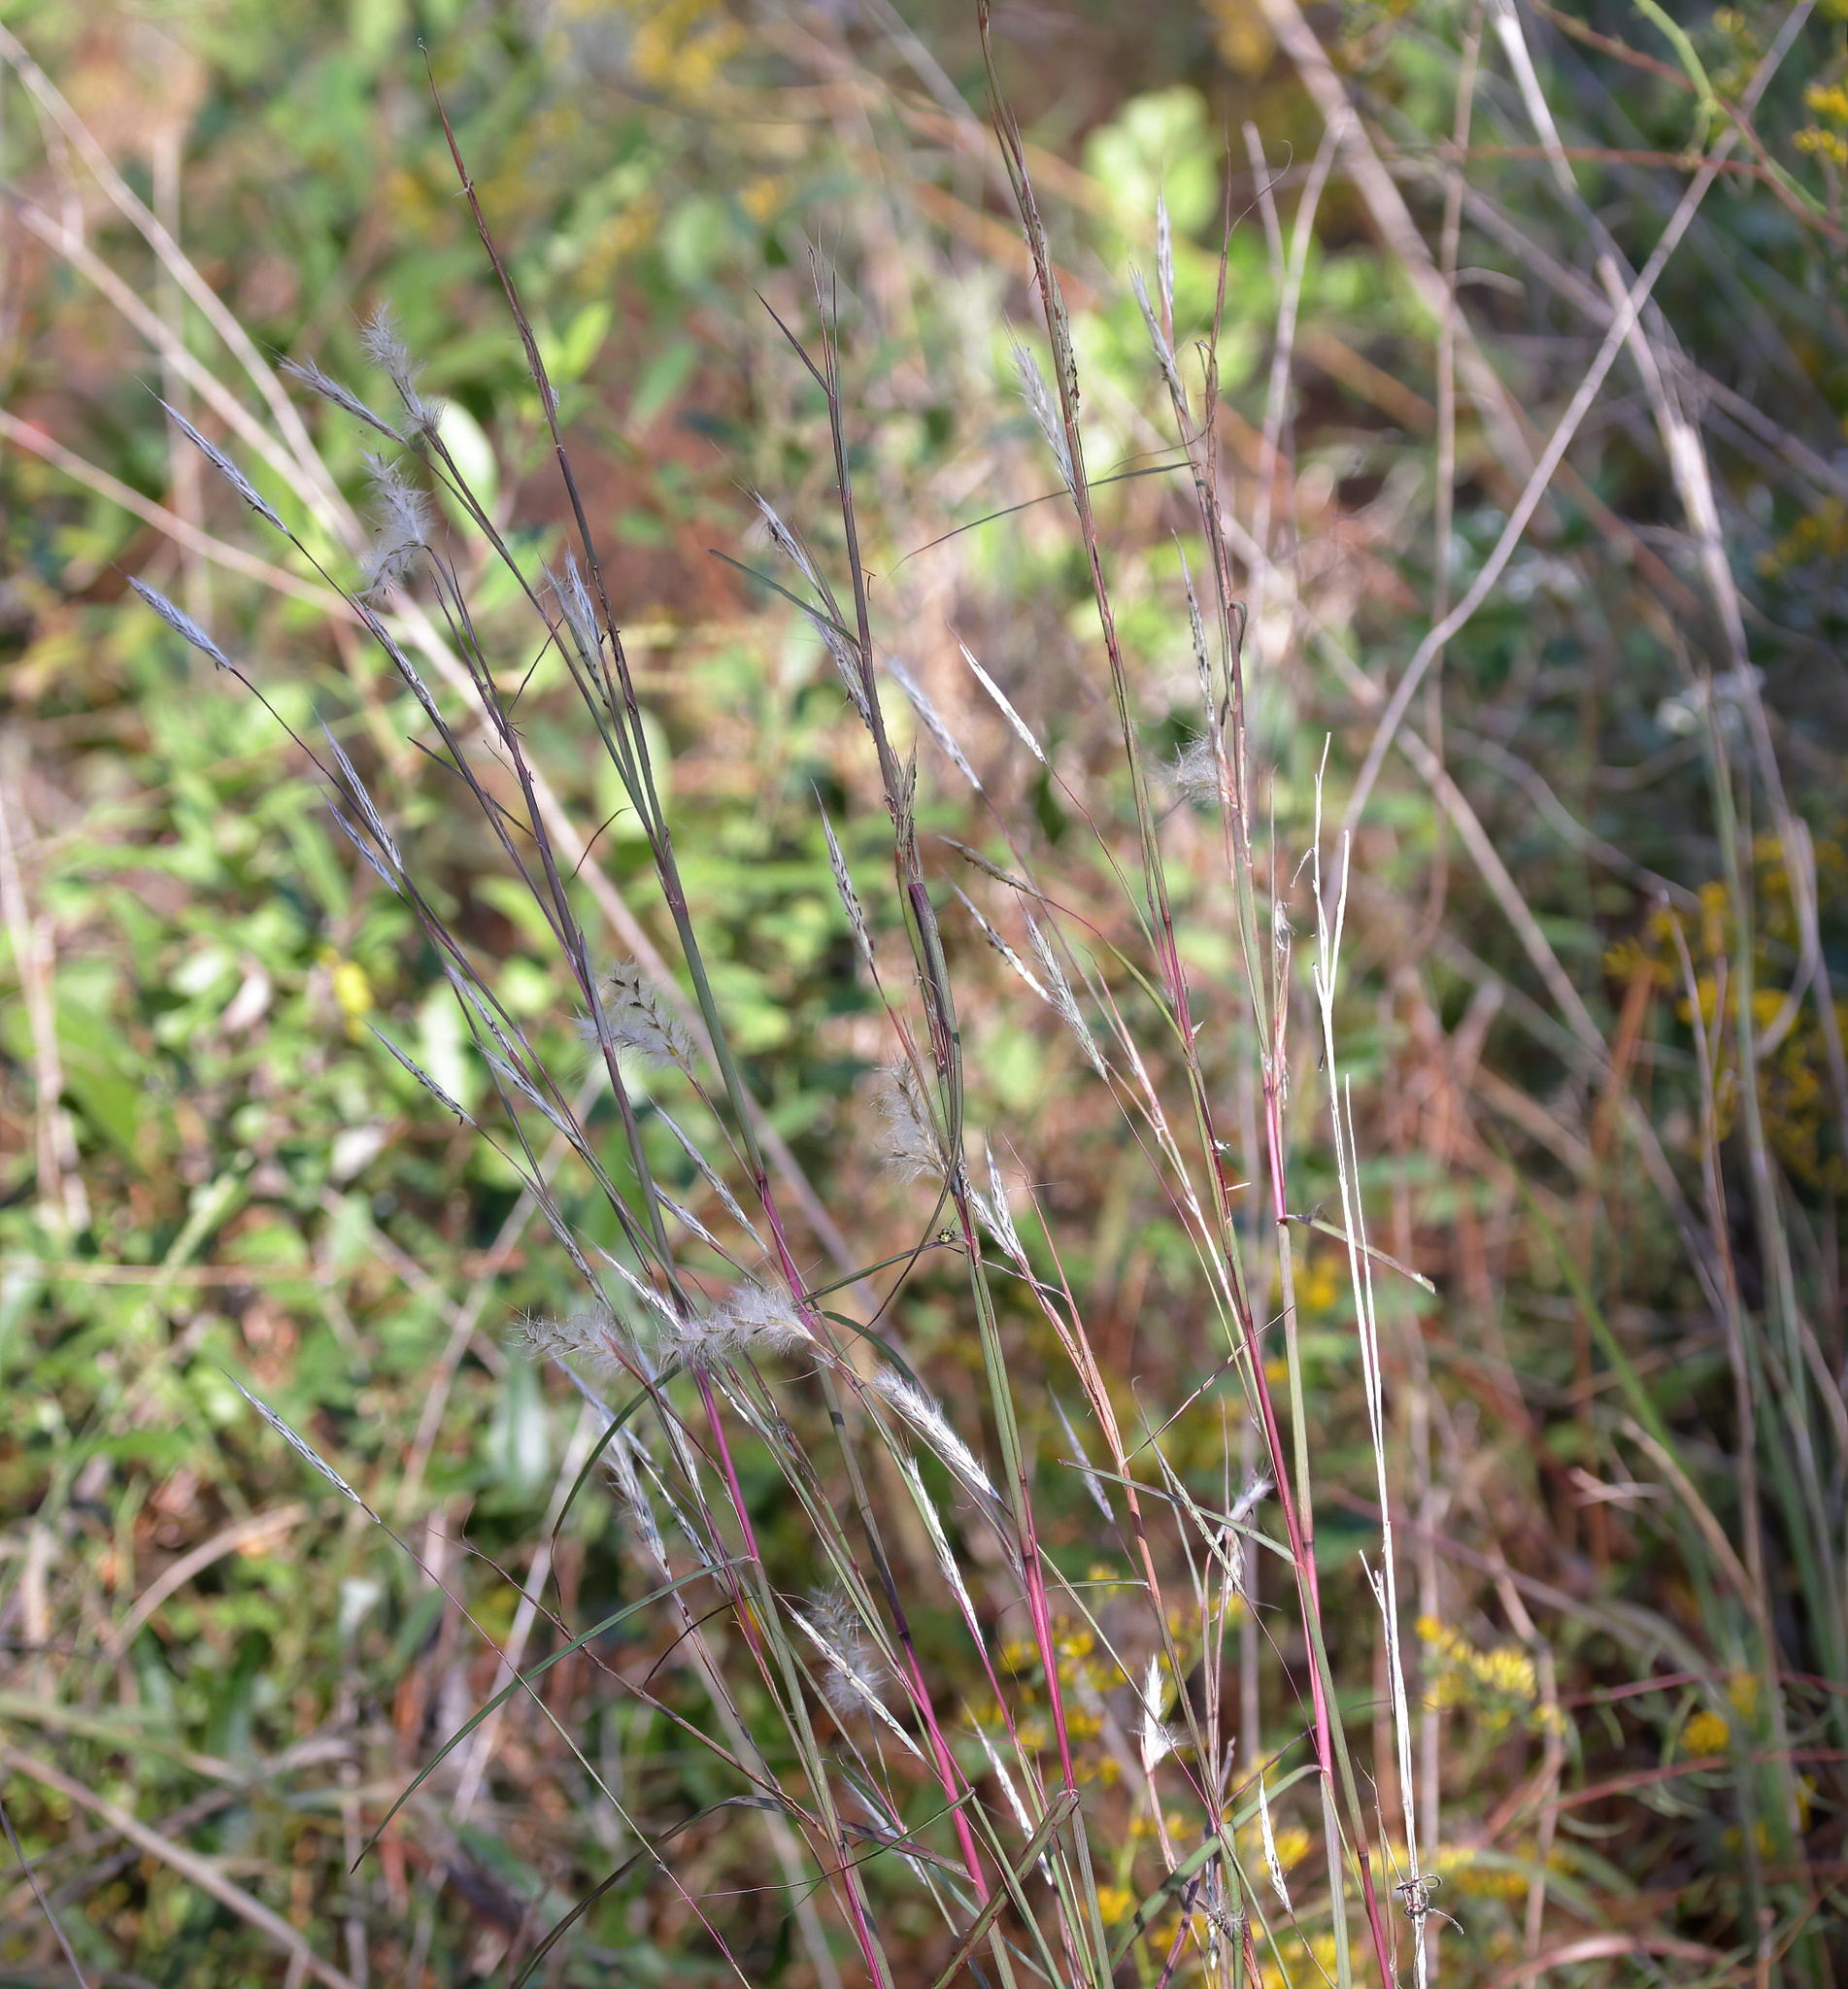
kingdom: Plantae
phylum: Tracheophyta
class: Liliopsida
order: Poales
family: Poaceae
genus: Andropogon
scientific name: Andropogon ternarius
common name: Split bluestem
